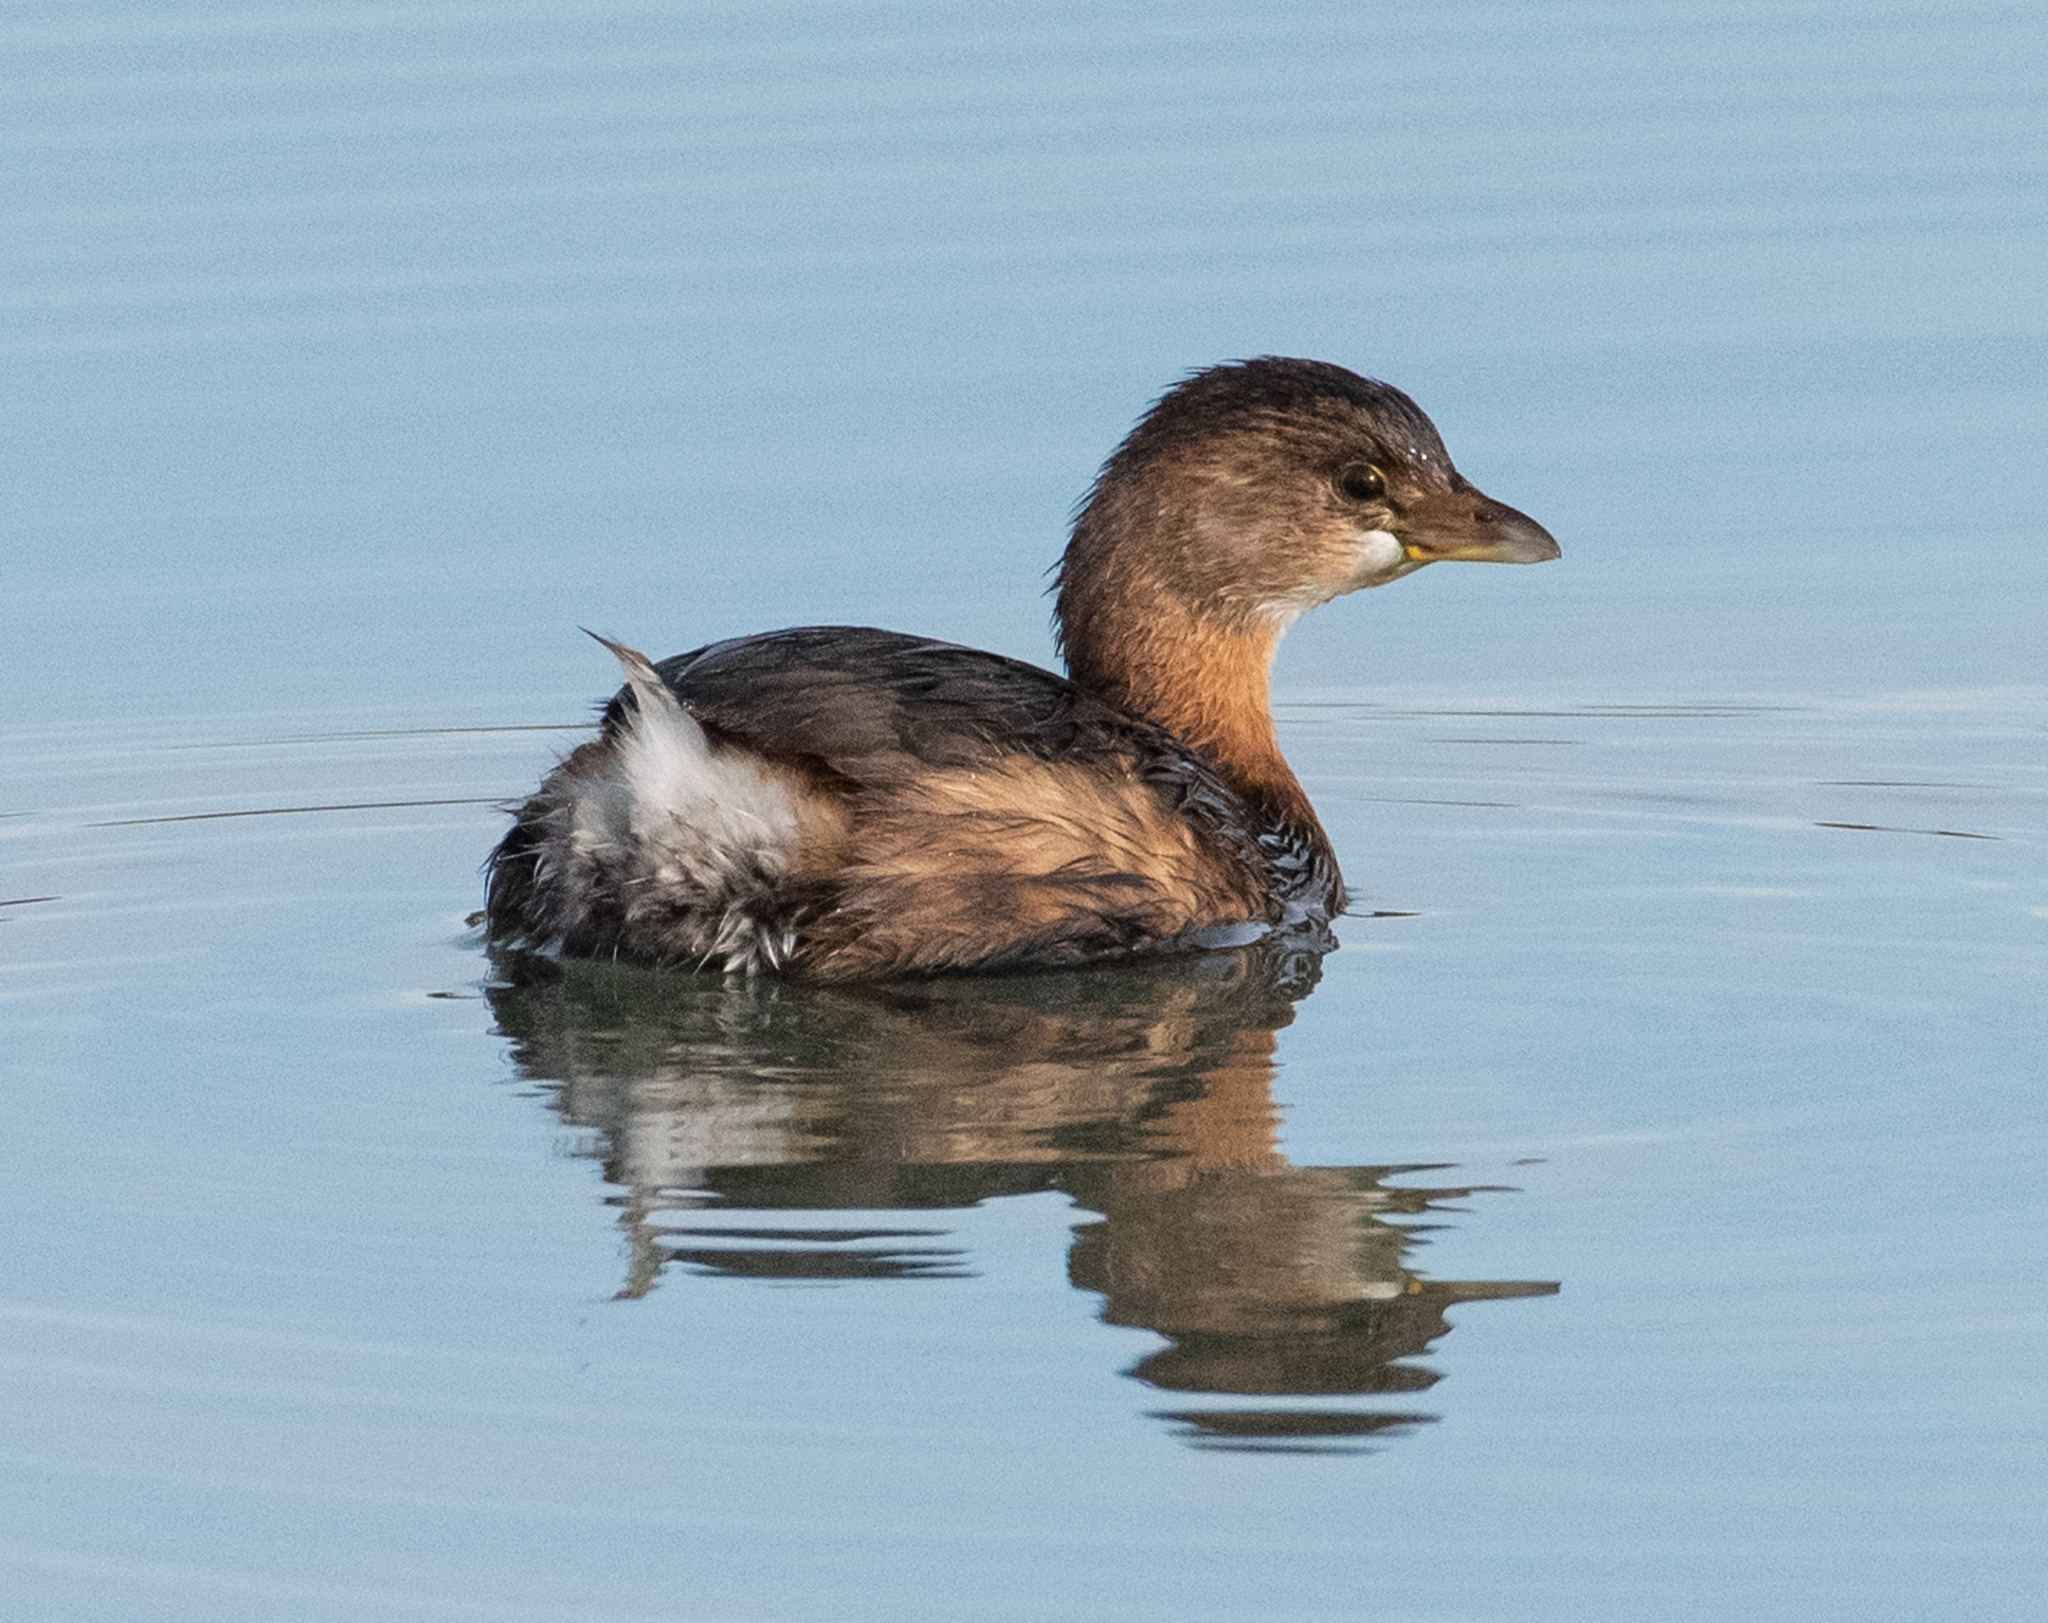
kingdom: Animalia
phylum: Chordata
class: Aves
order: Podicipediformes
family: Podicipedidae
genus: Podilymbus
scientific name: Podilymbus podiceps
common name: Pied-billed grebe
